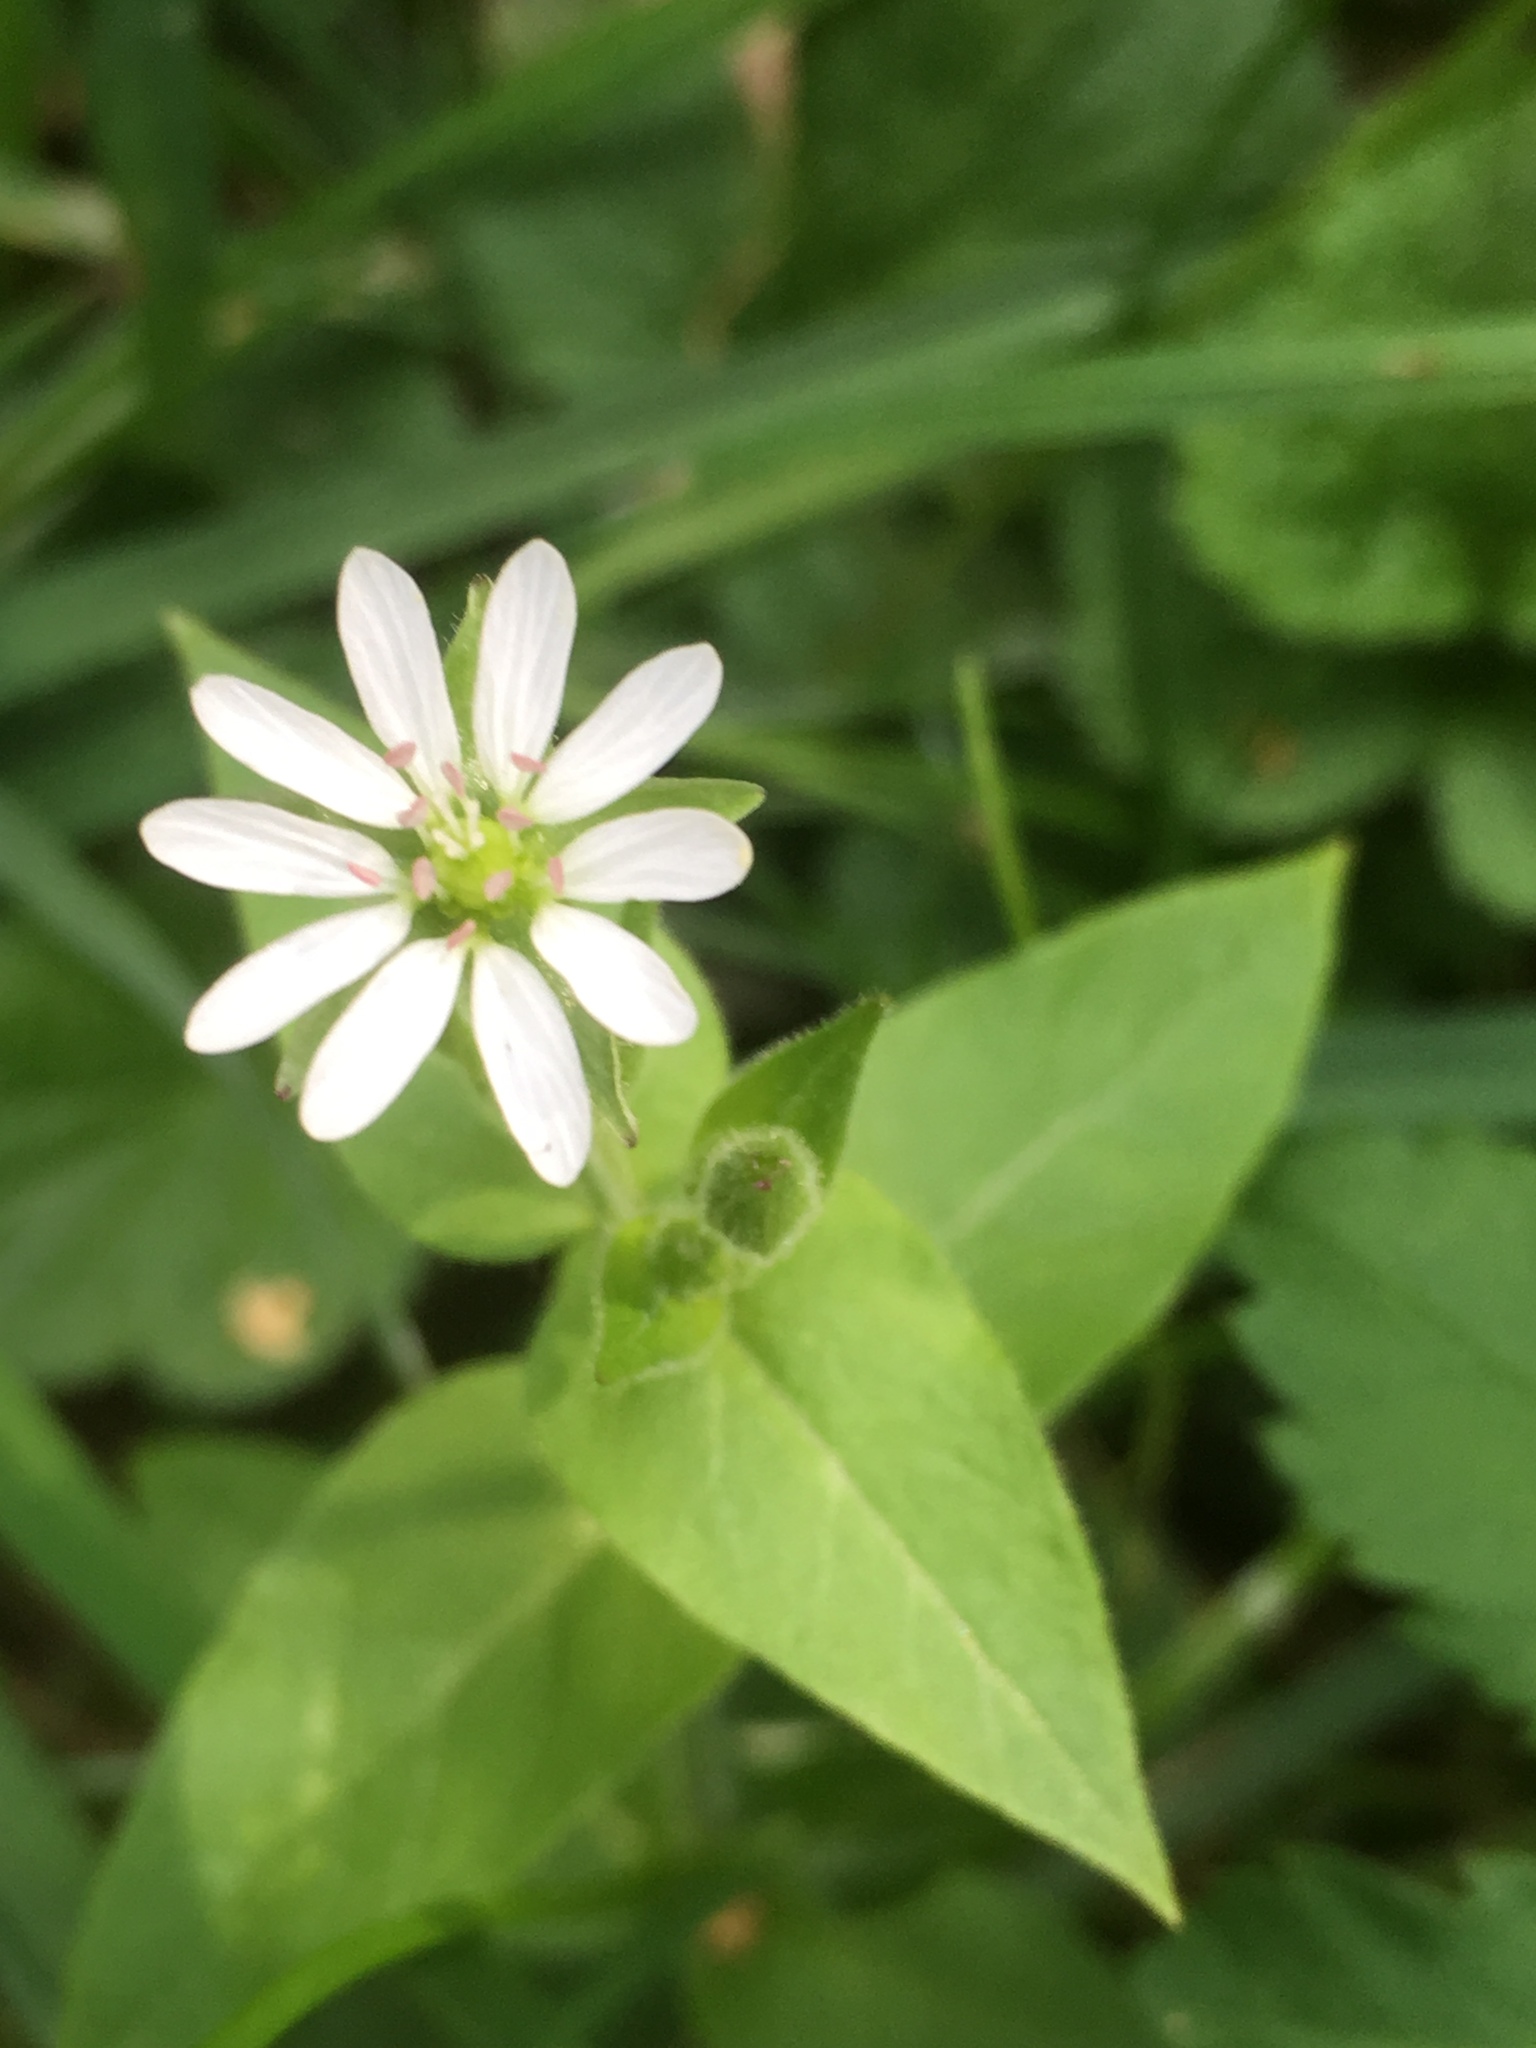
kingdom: Plantae
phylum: Tracheophyta
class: Magnoliopsida
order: Caryophyllales
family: Caryophyllaceae
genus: Stellaria
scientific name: Stellaria aquatica
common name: Water chickweed
